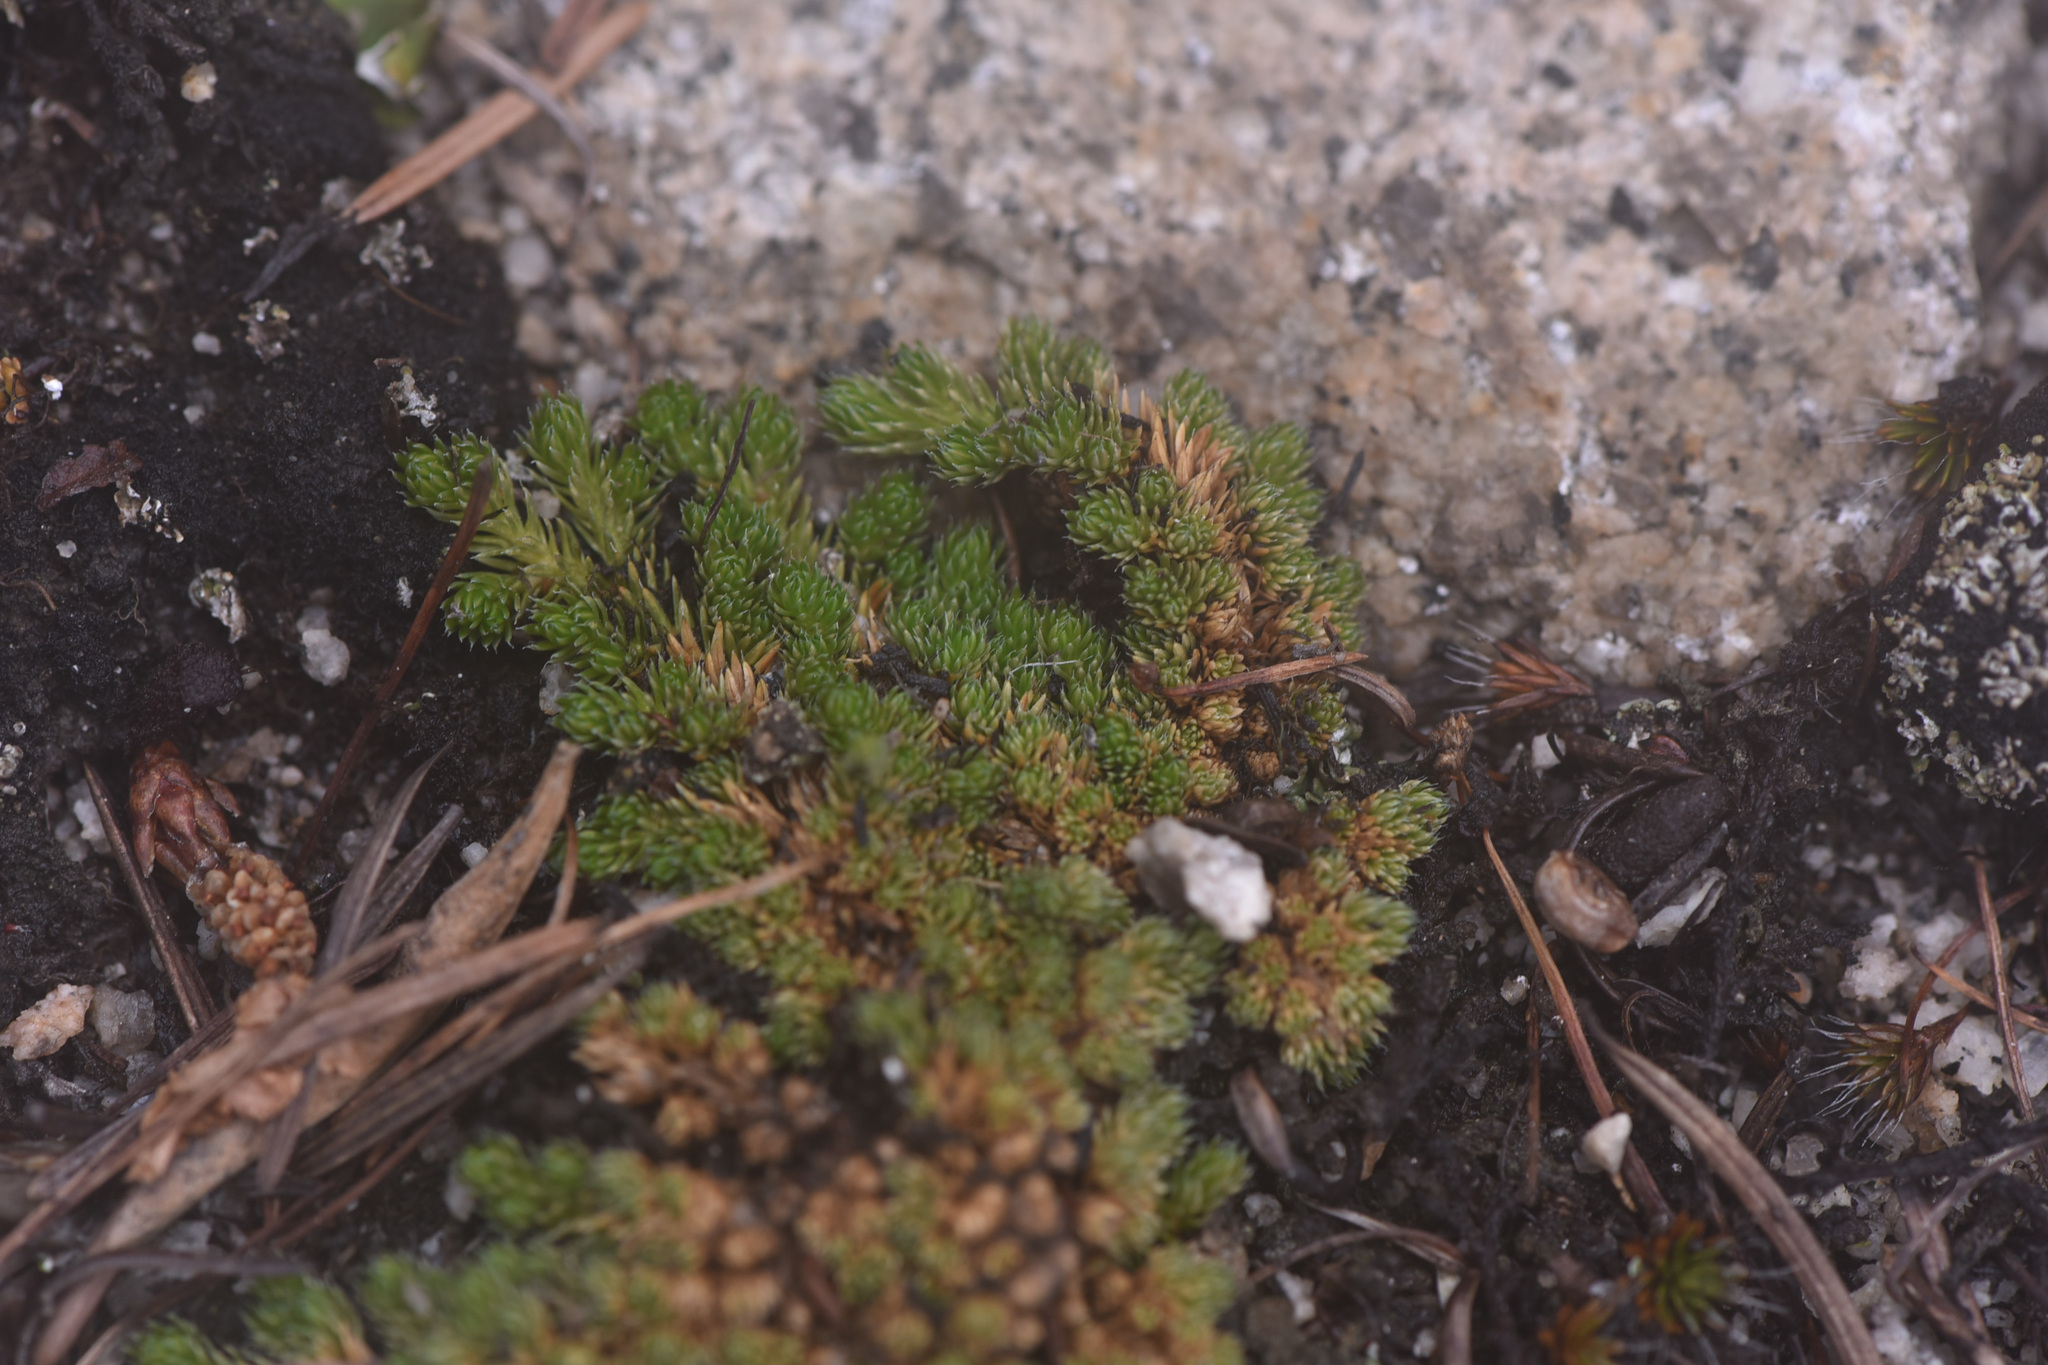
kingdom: Plantae
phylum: Tracheophyta
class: Lycopodiopsida
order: Selaginellales
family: Selaginellaceae
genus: Selaginella
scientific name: Selaginella densa
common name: Mountain spike-moss
